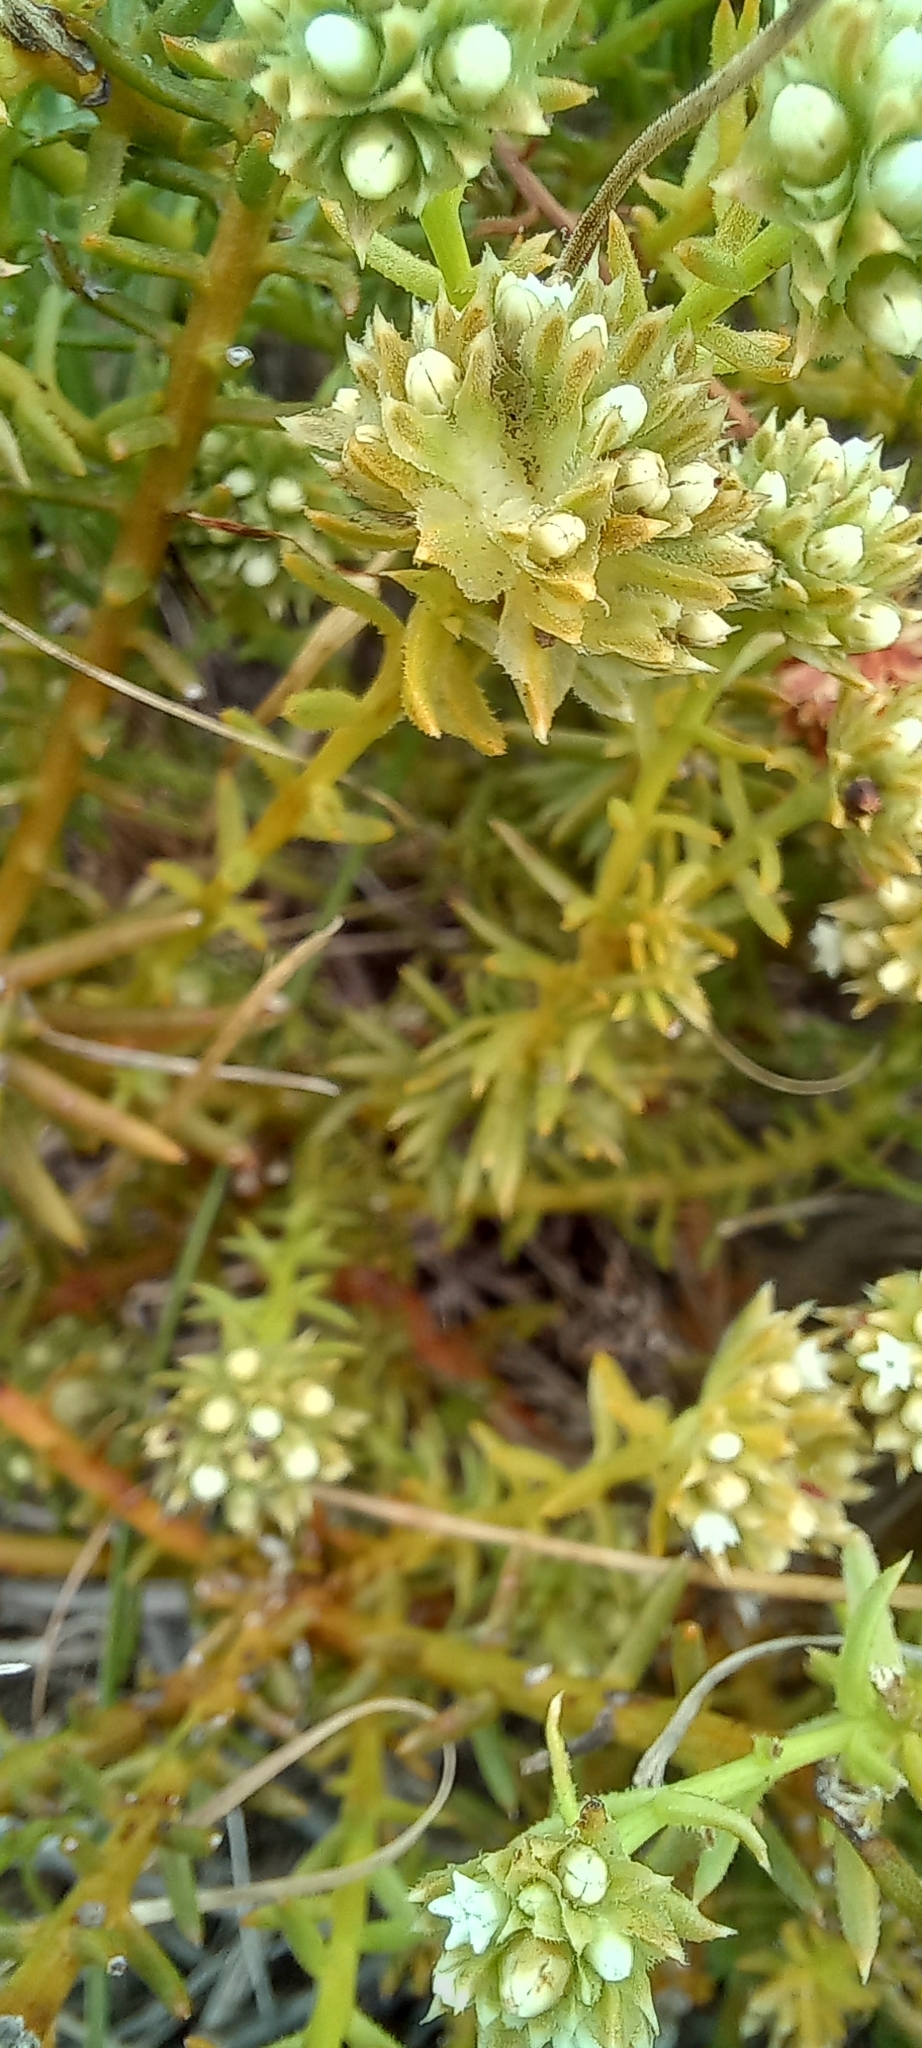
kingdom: Plantae
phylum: Tracheophyta
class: Magnoliopsida
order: Santalales
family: Thesiaceae
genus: Thesium
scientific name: Thesium scabrum
